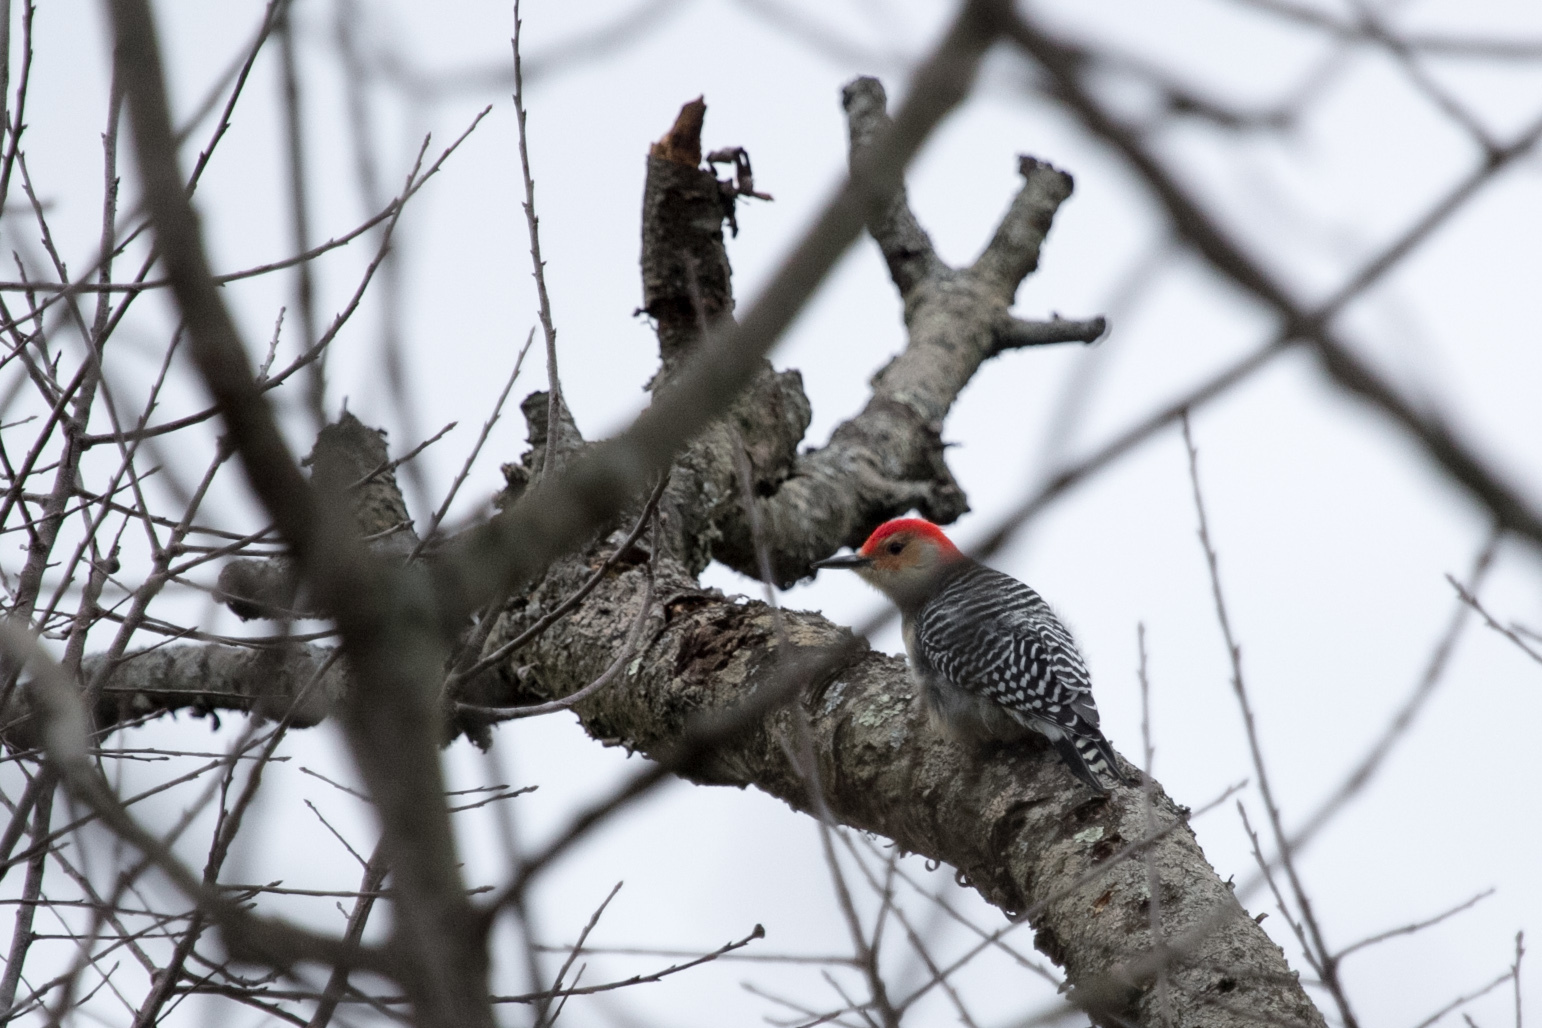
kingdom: Animalia
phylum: Chordata
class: Aves
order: Piciformes
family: Picidae
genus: Melanerpes
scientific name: Melanerpes carolinus
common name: Red-bellied woodpecker
